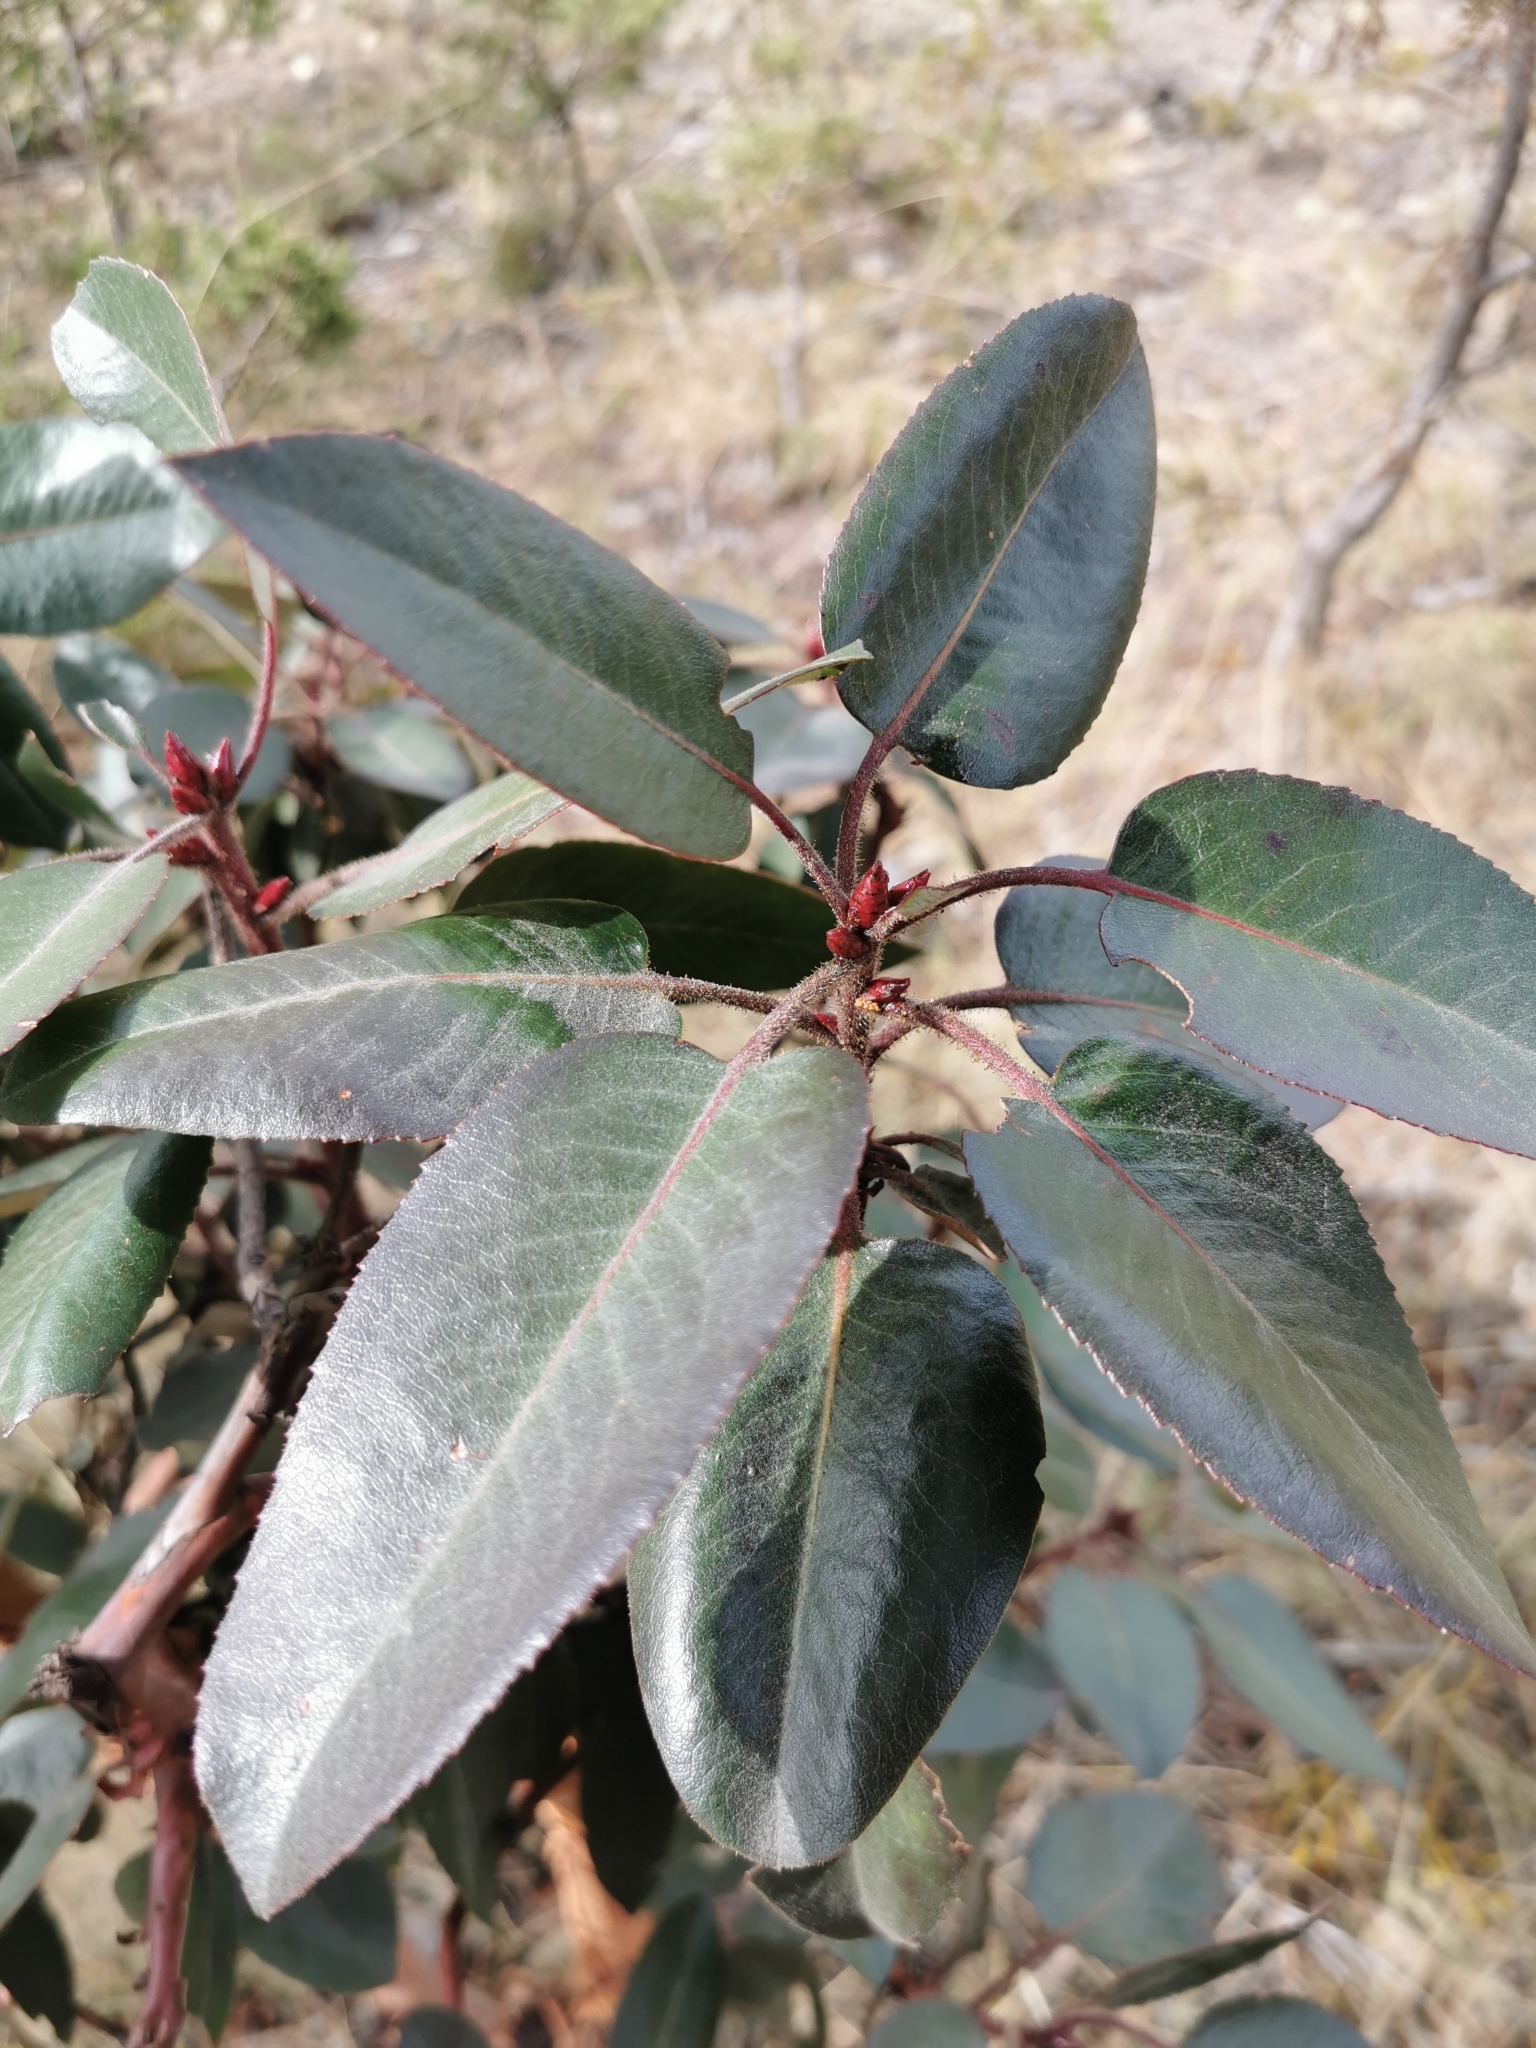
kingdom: Plantae
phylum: Tracheophyta
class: Magnoliopsida
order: Ericales
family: Ericaceae
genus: Arbutus
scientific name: Arbutus bicolor
